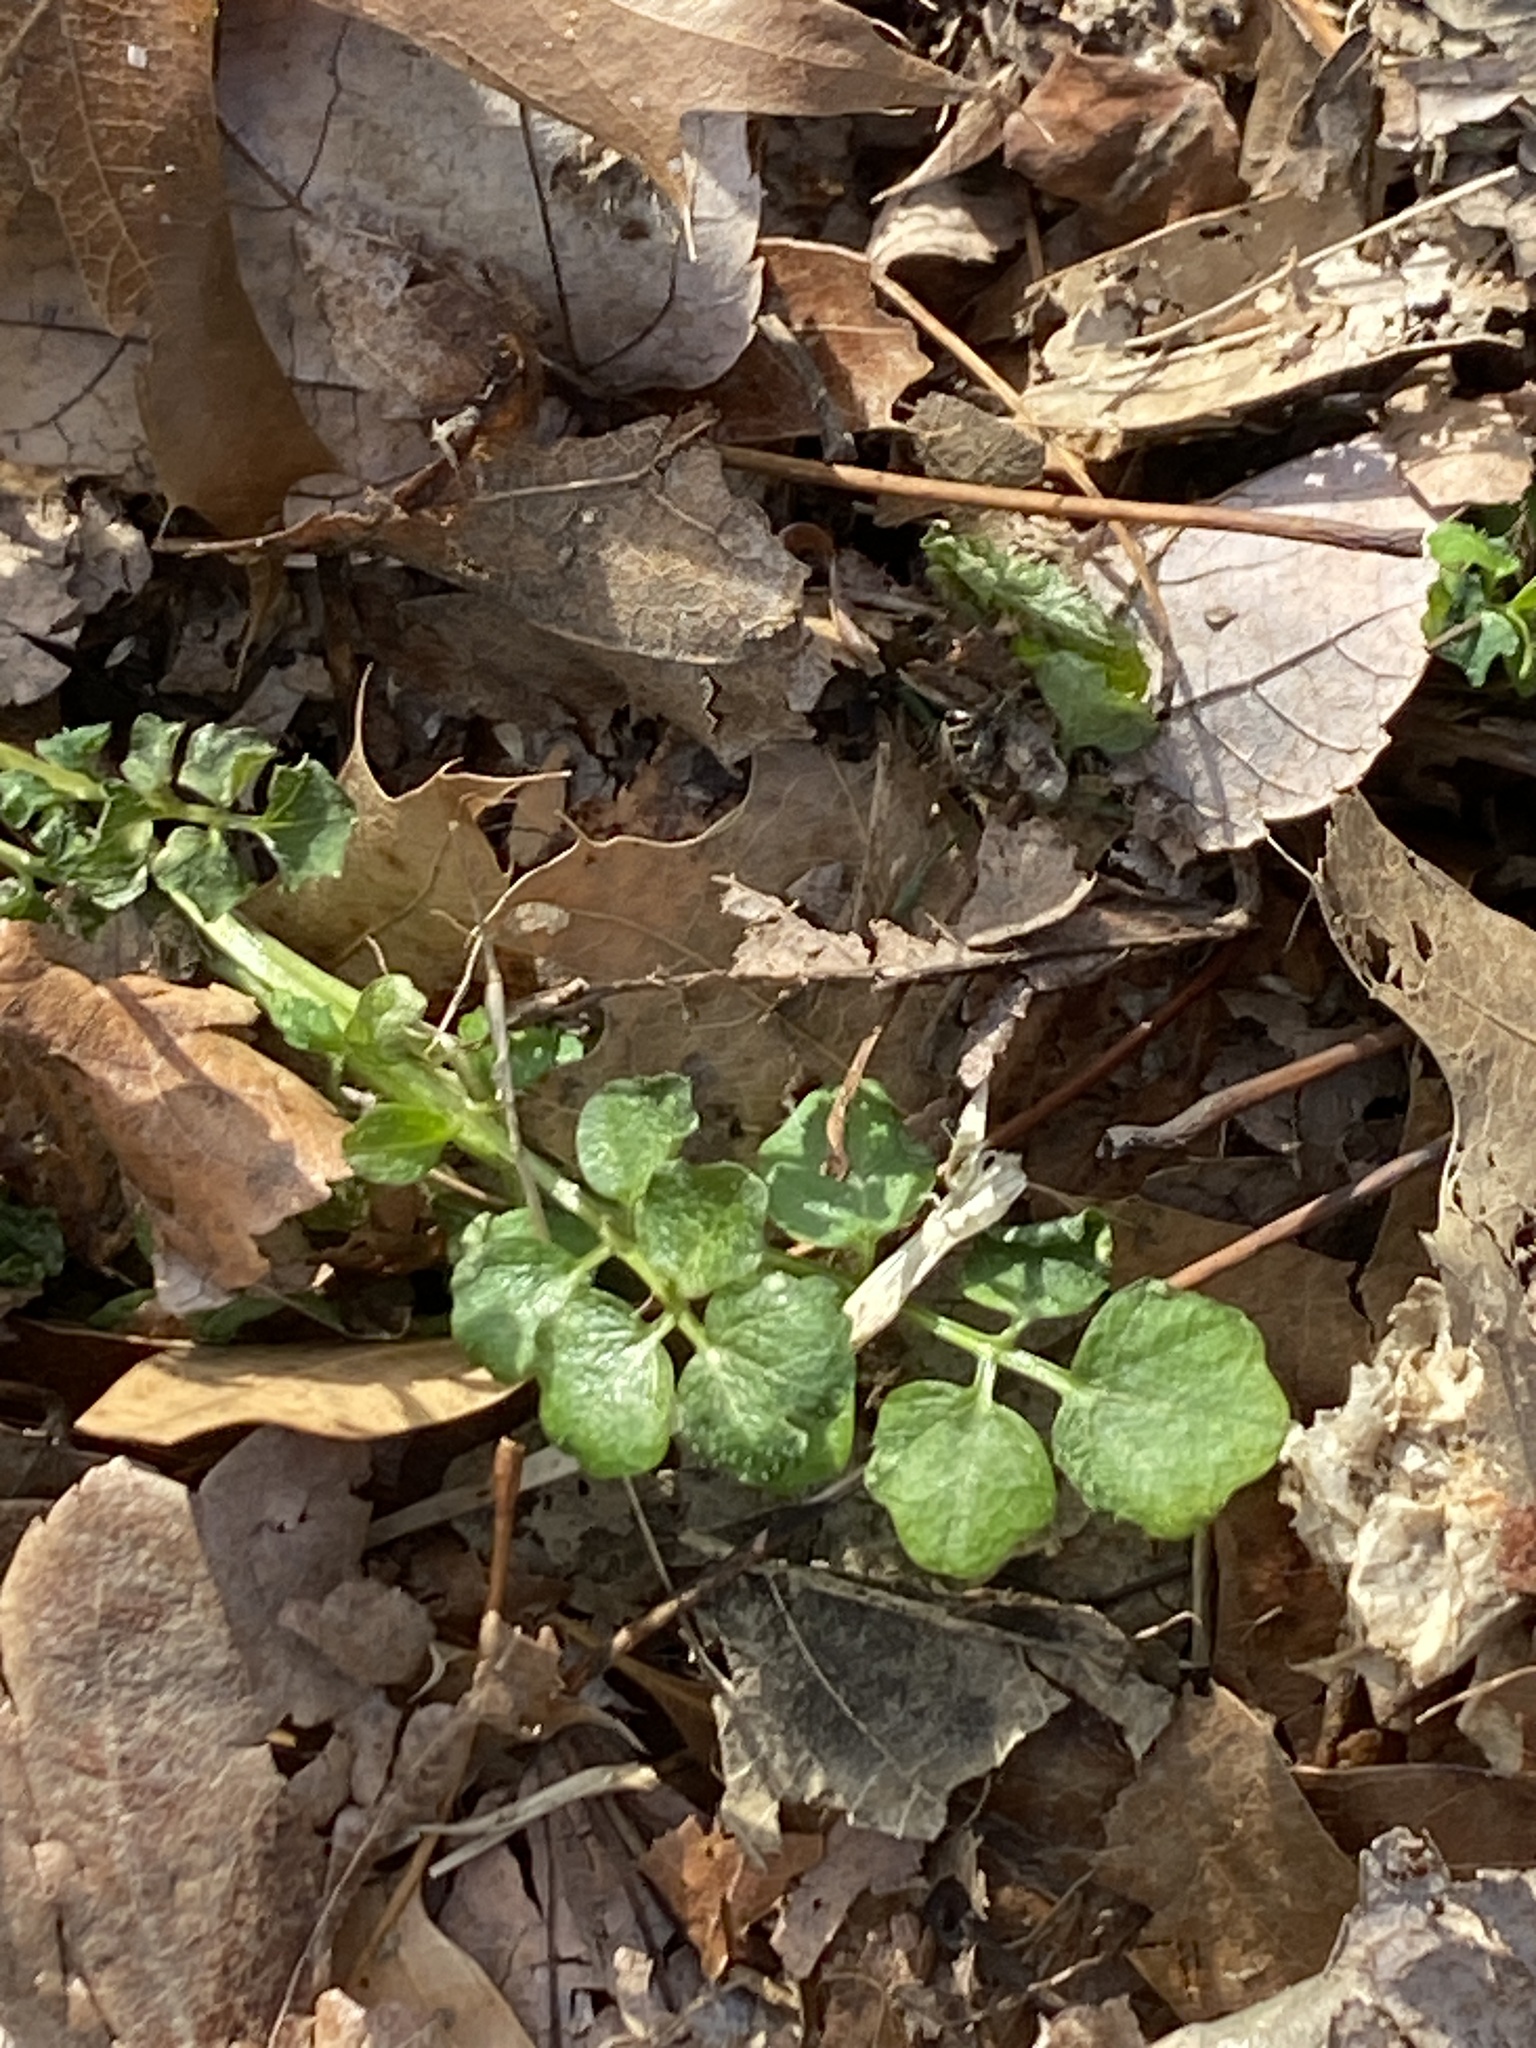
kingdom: Plantae
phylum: Tracheophyta
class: Magnoliopsida
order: Brassicales
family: Brassicaceae
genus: Cardamine
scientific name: Cardamine hirsuta
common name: Hairy bittercress
